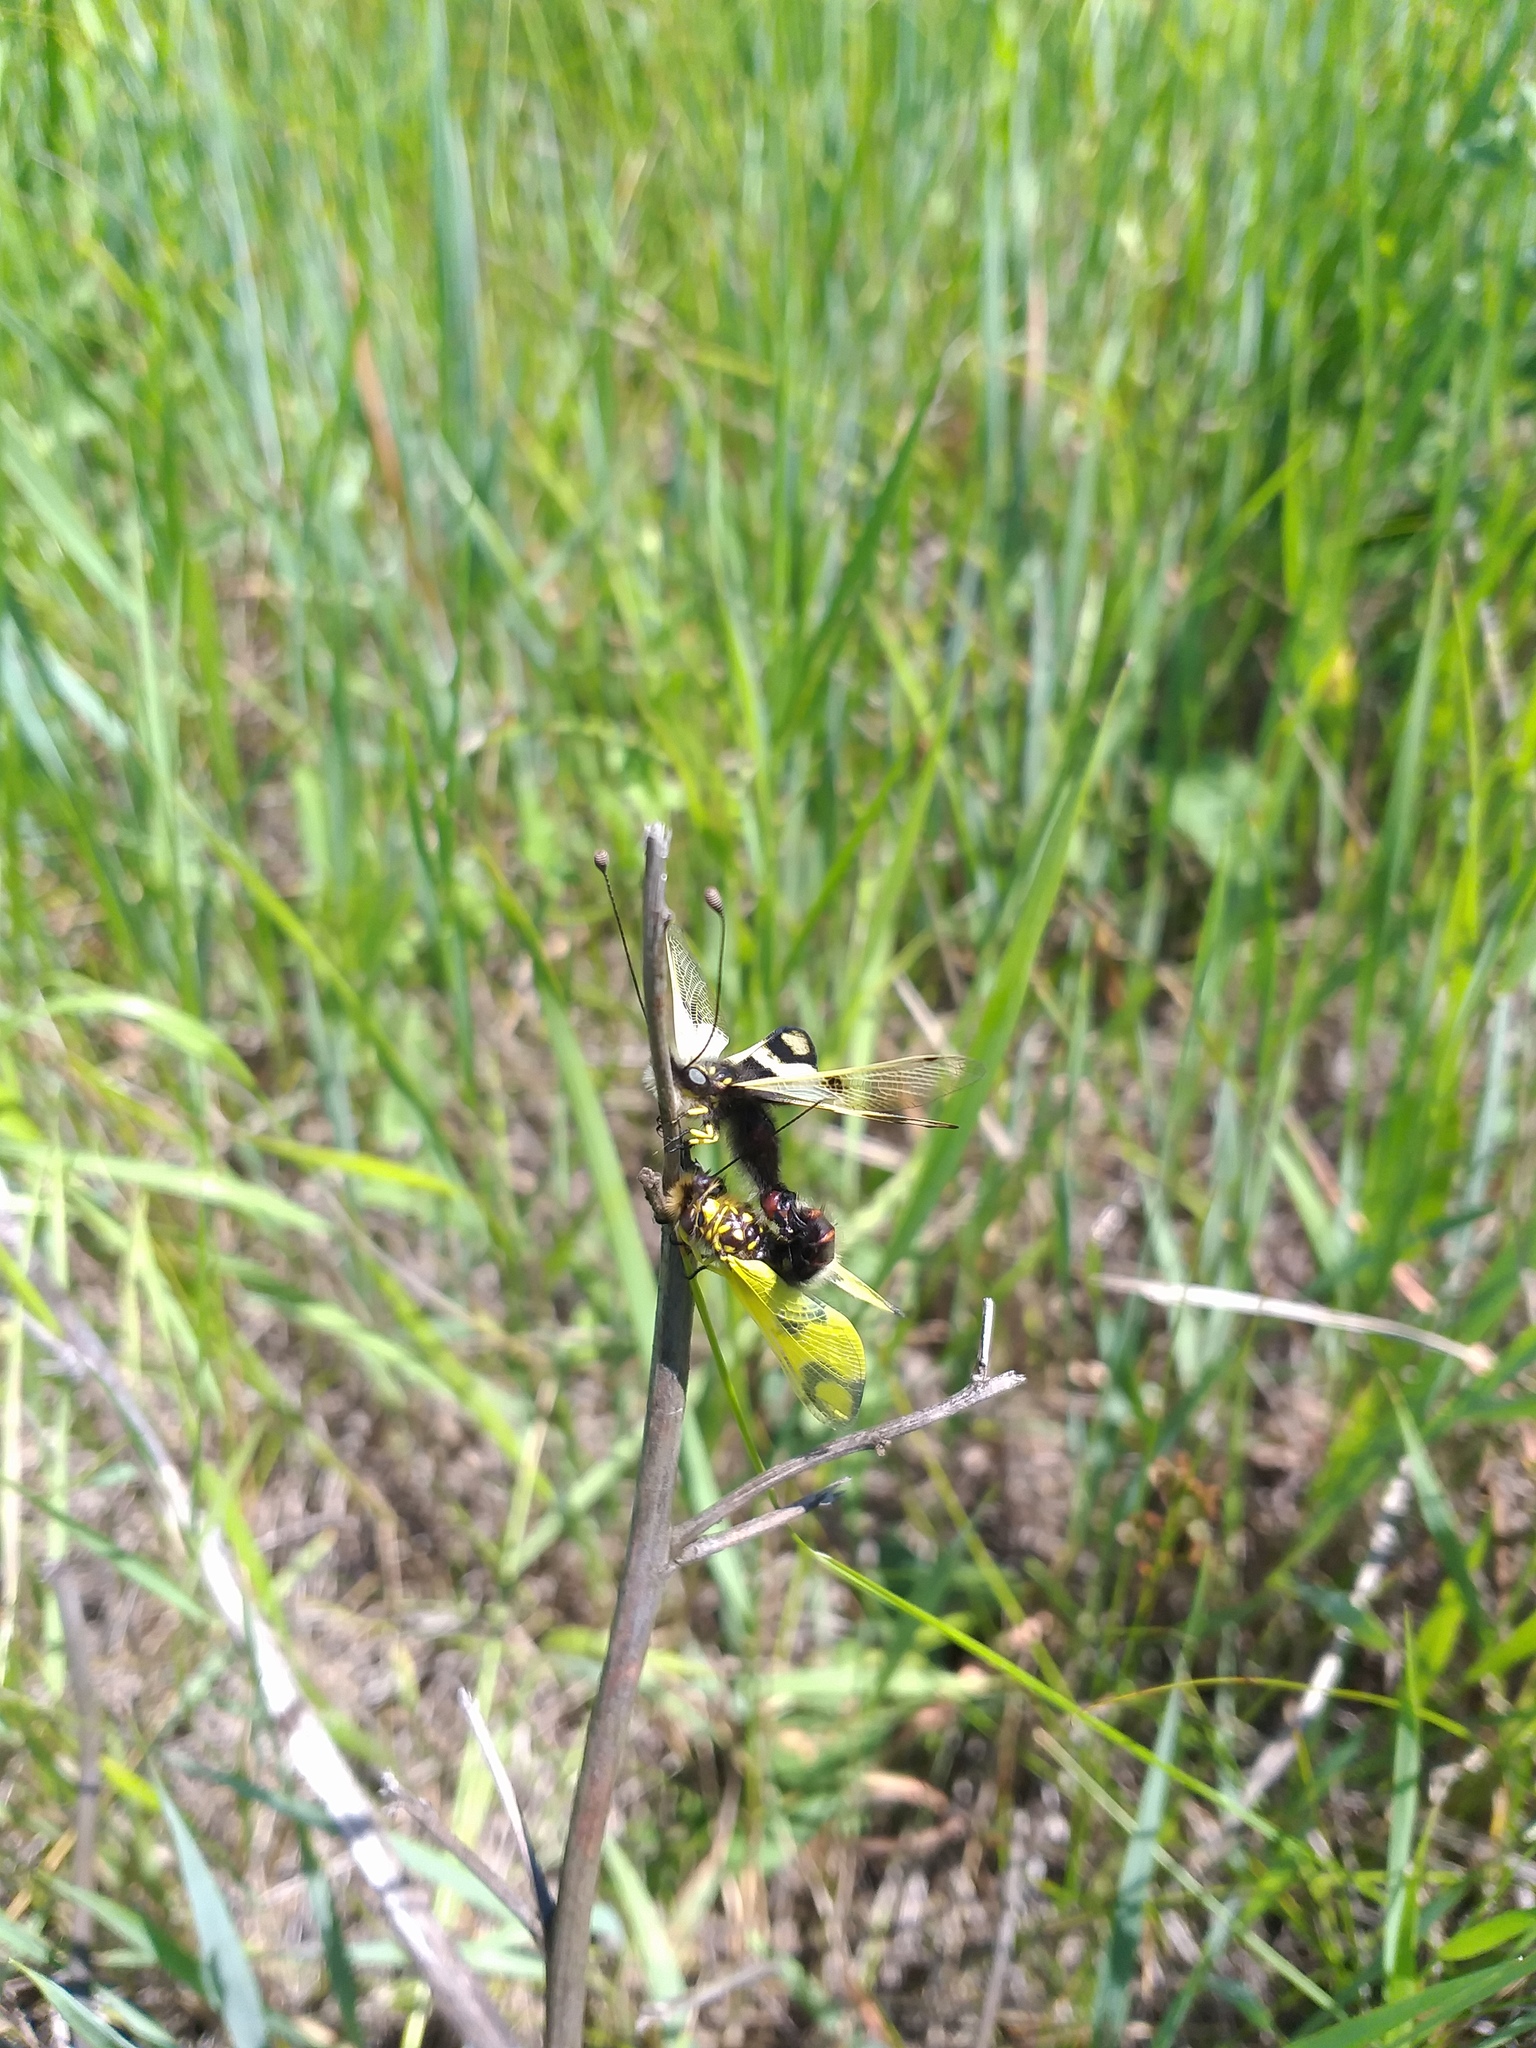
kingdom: Animalia
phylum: Arthropoda
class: Insecta
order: Neuroptera
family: Ascalaphidae
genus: Libelloides
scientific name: Libelloides macaronius
